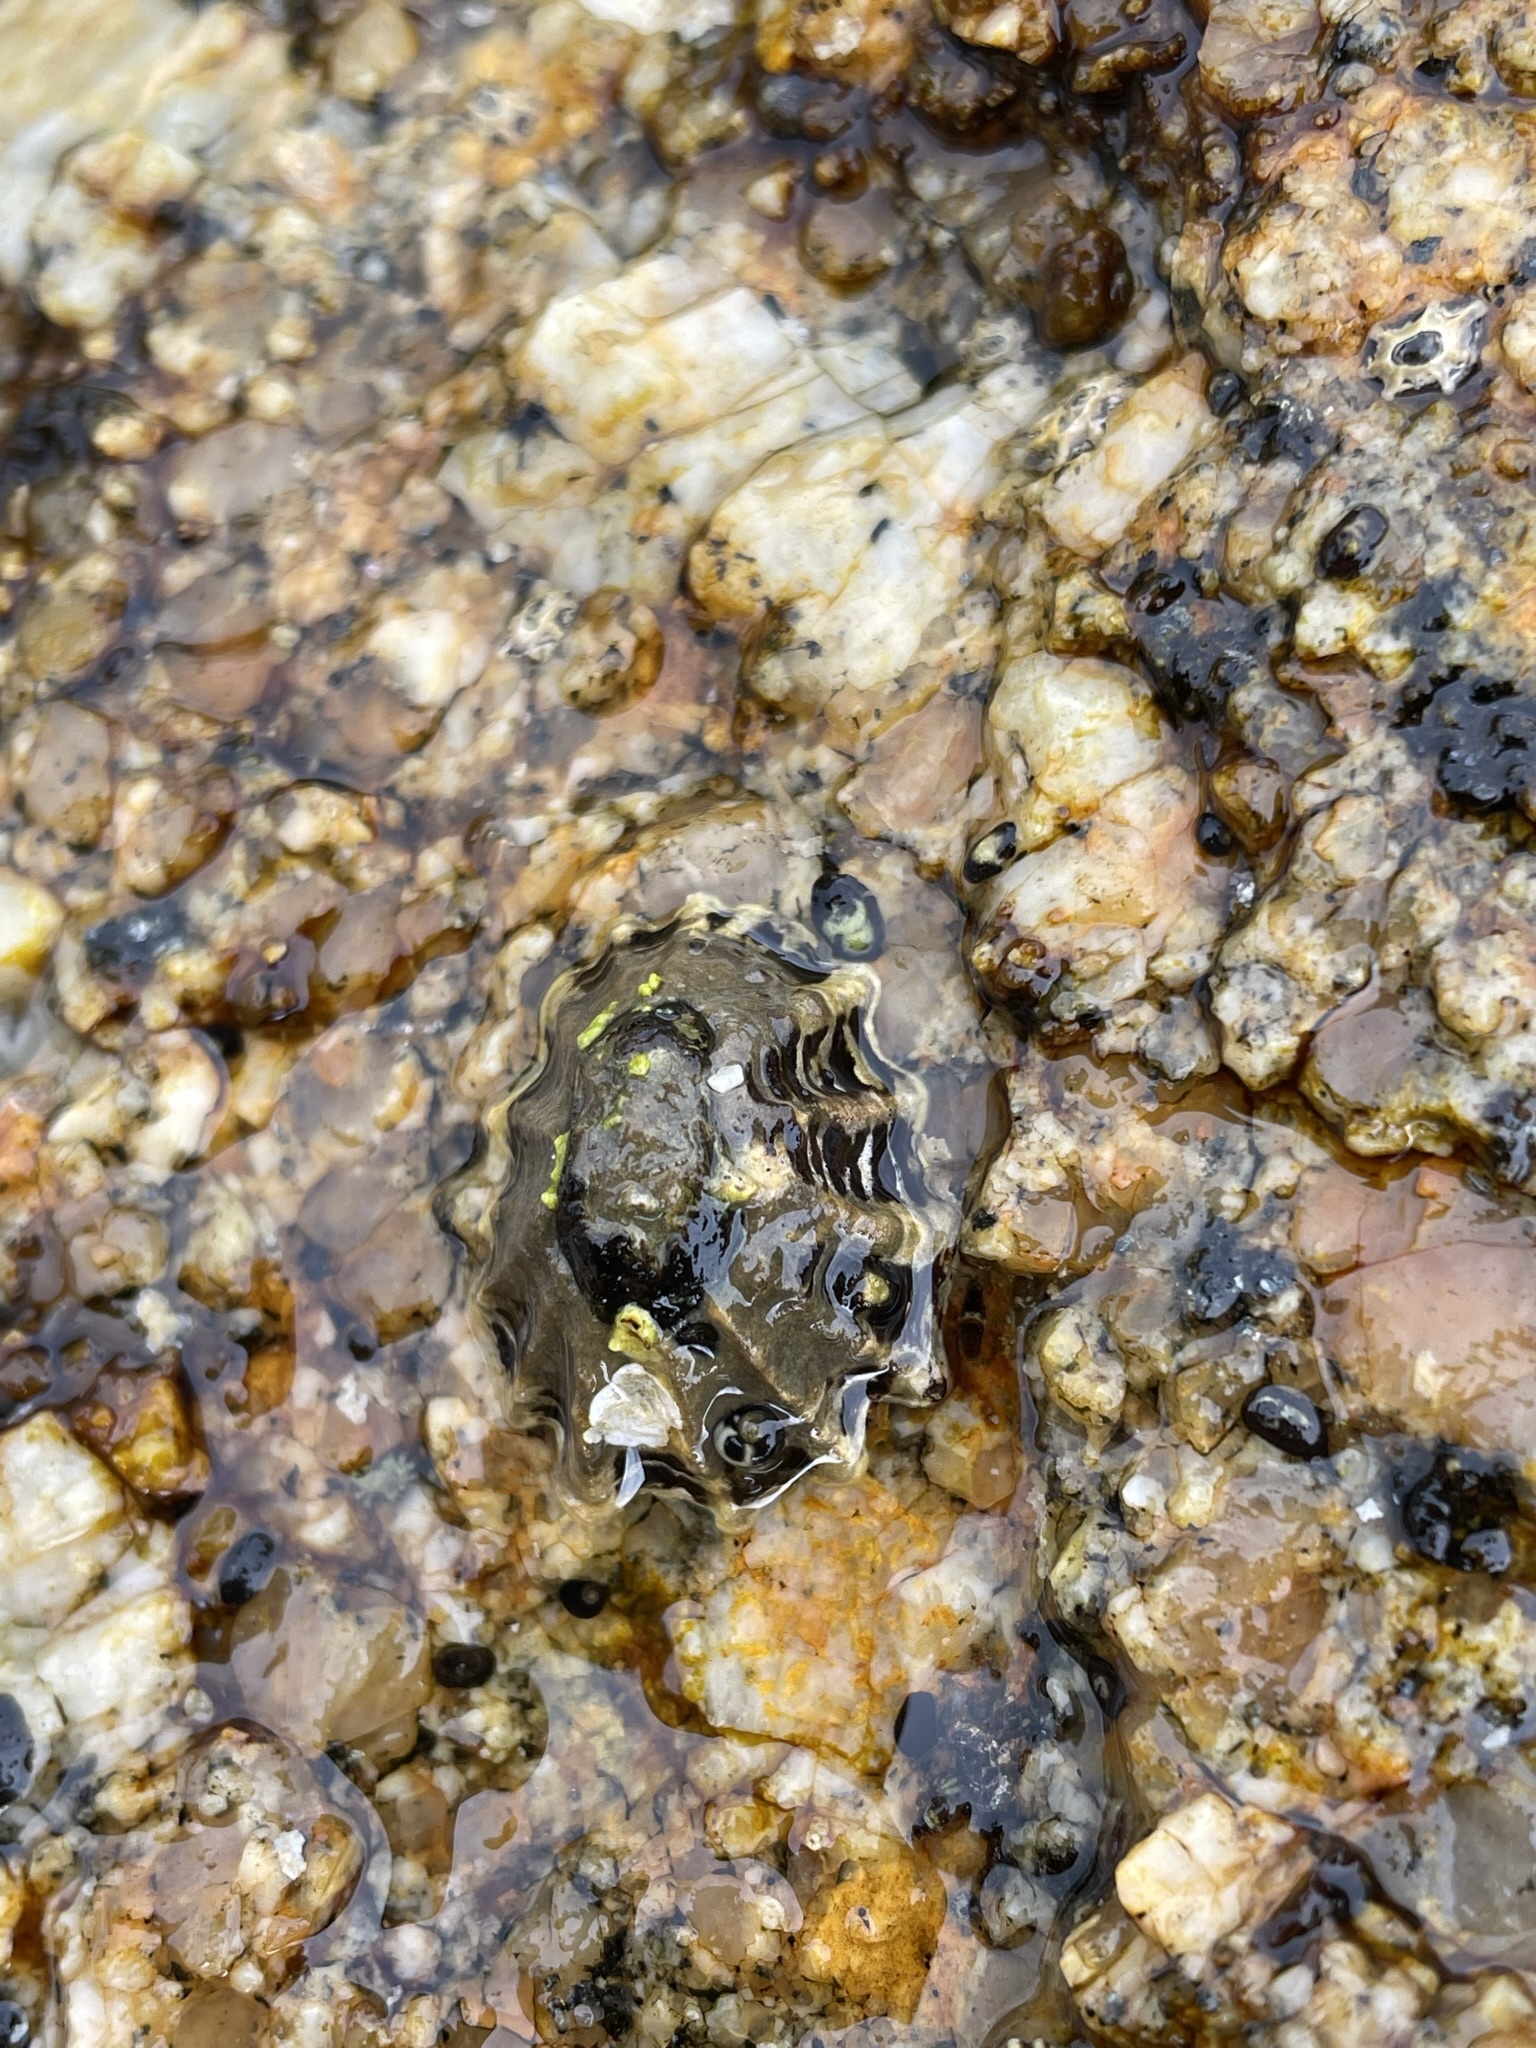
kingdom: Animalia
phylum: Mollusca
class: Gastropoda
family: Lottiidae
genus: Patelloida
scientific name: Patelloida alticostata
